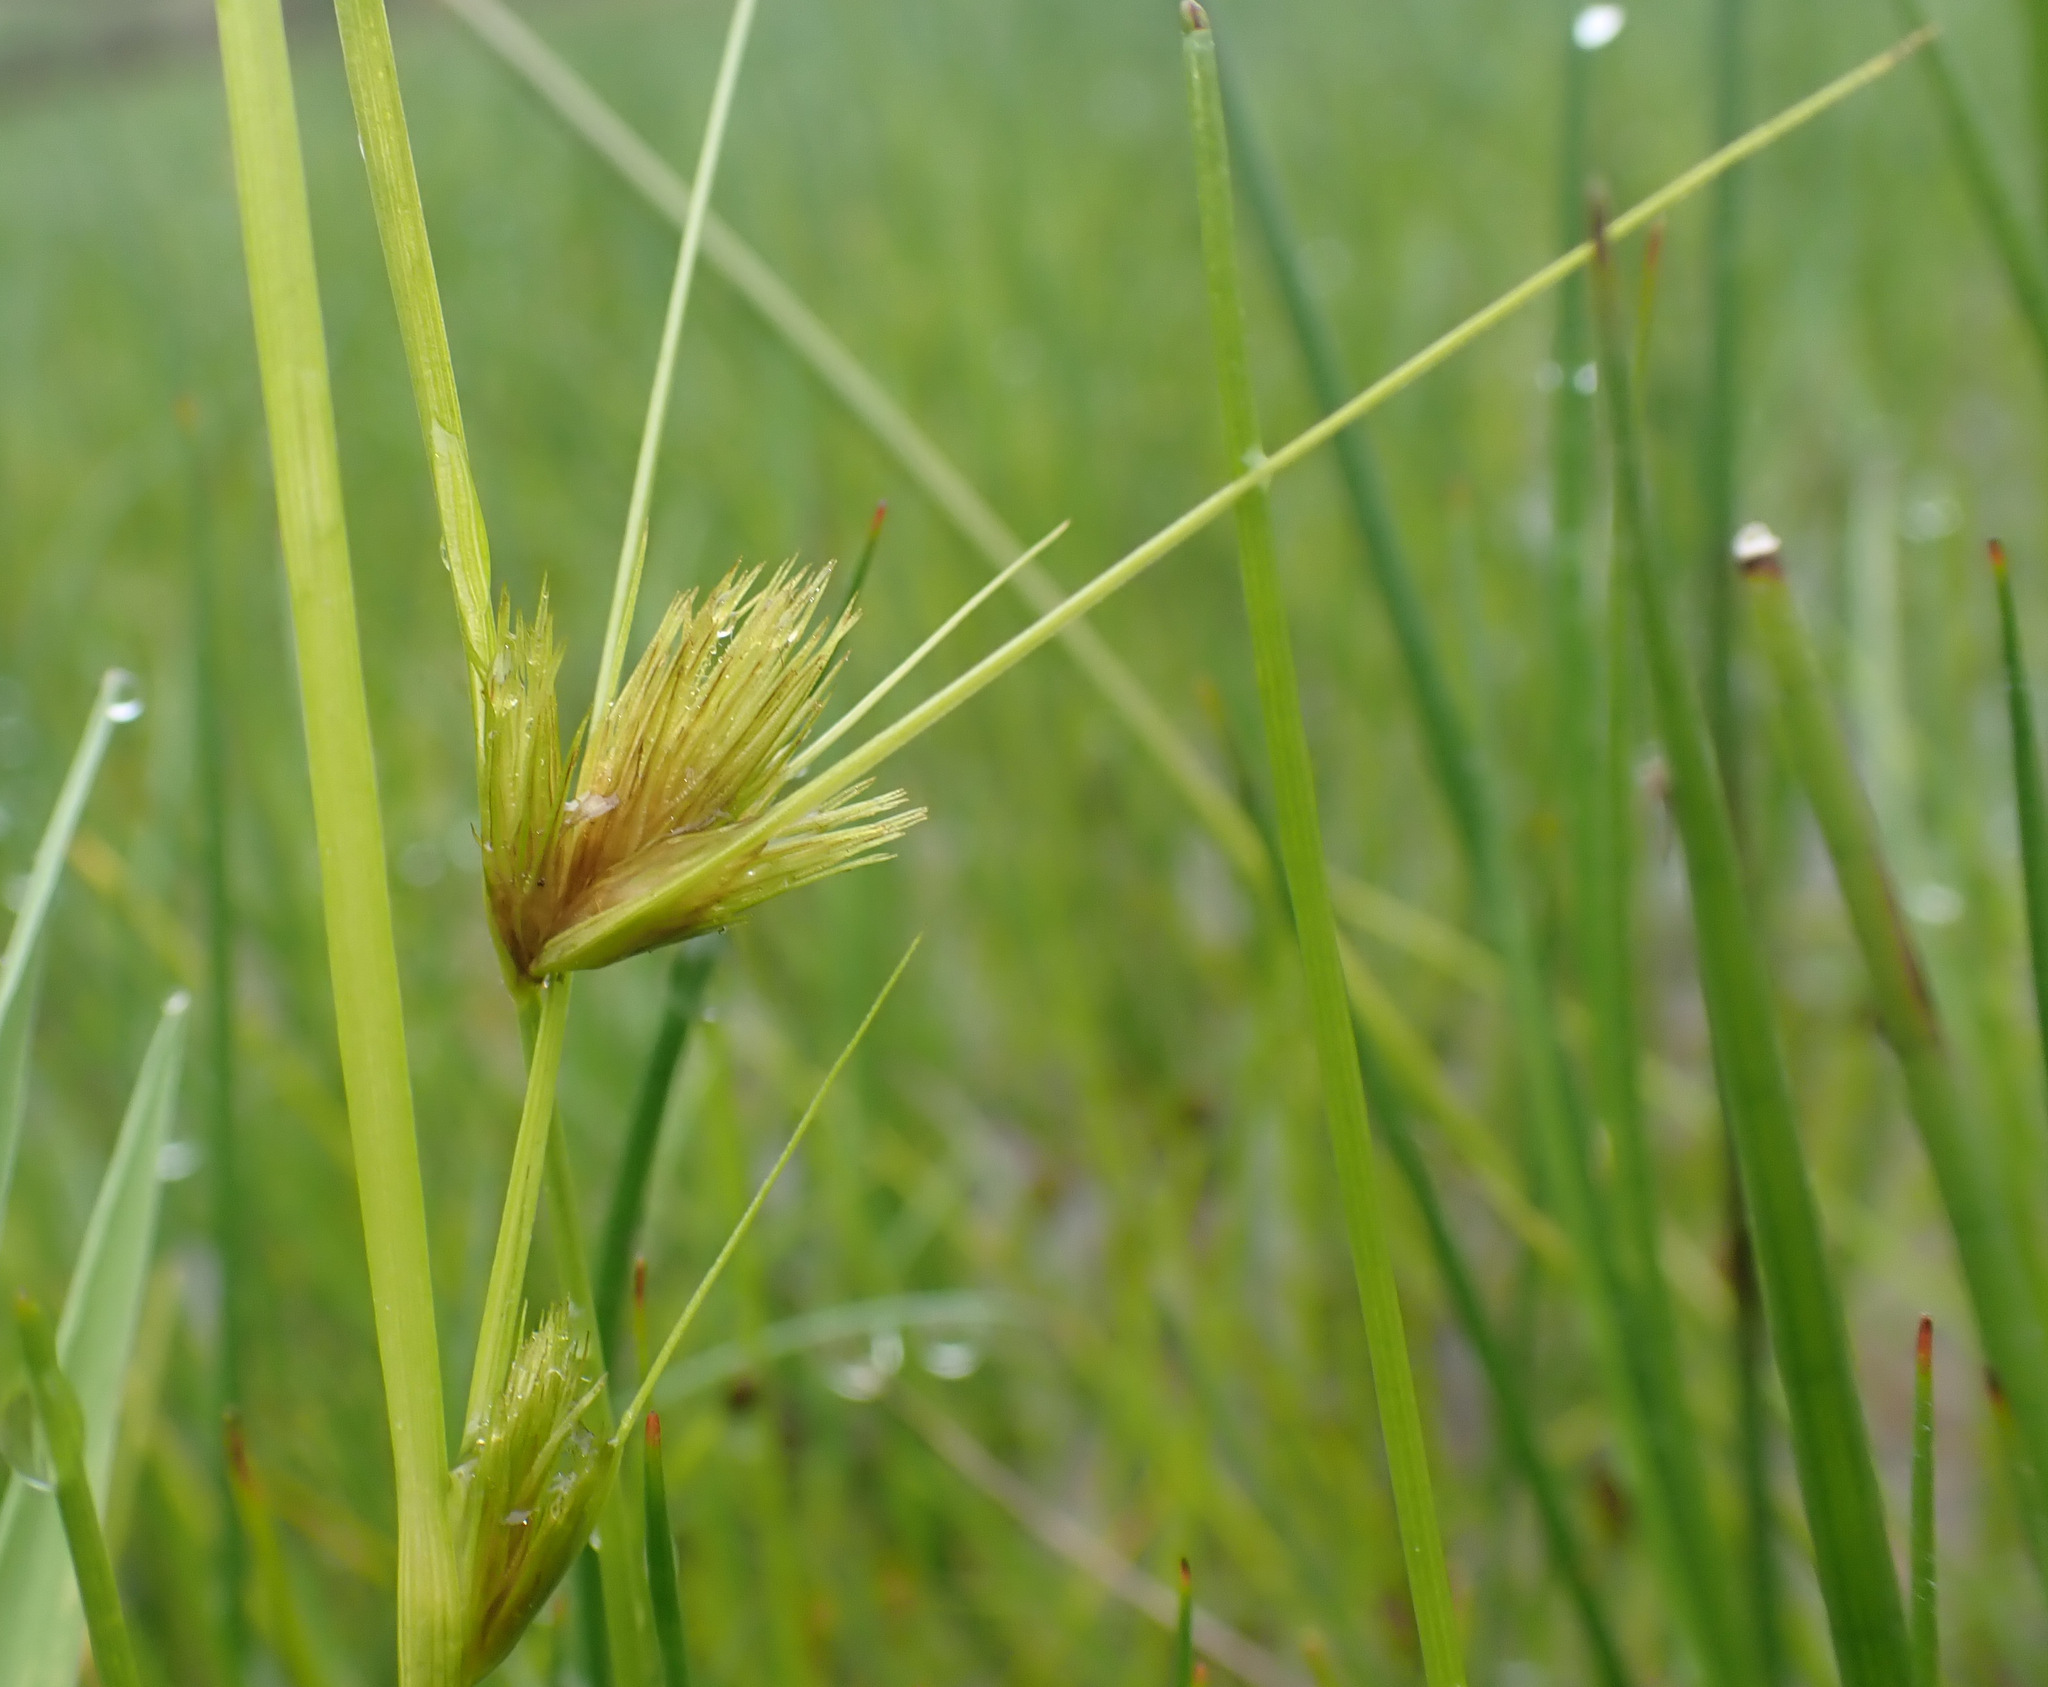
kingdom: Plantae
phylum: Tracheophyta
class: Liliopsida
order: Poales
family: Cyperaceae
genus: Carex
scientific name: Carex bohemica
